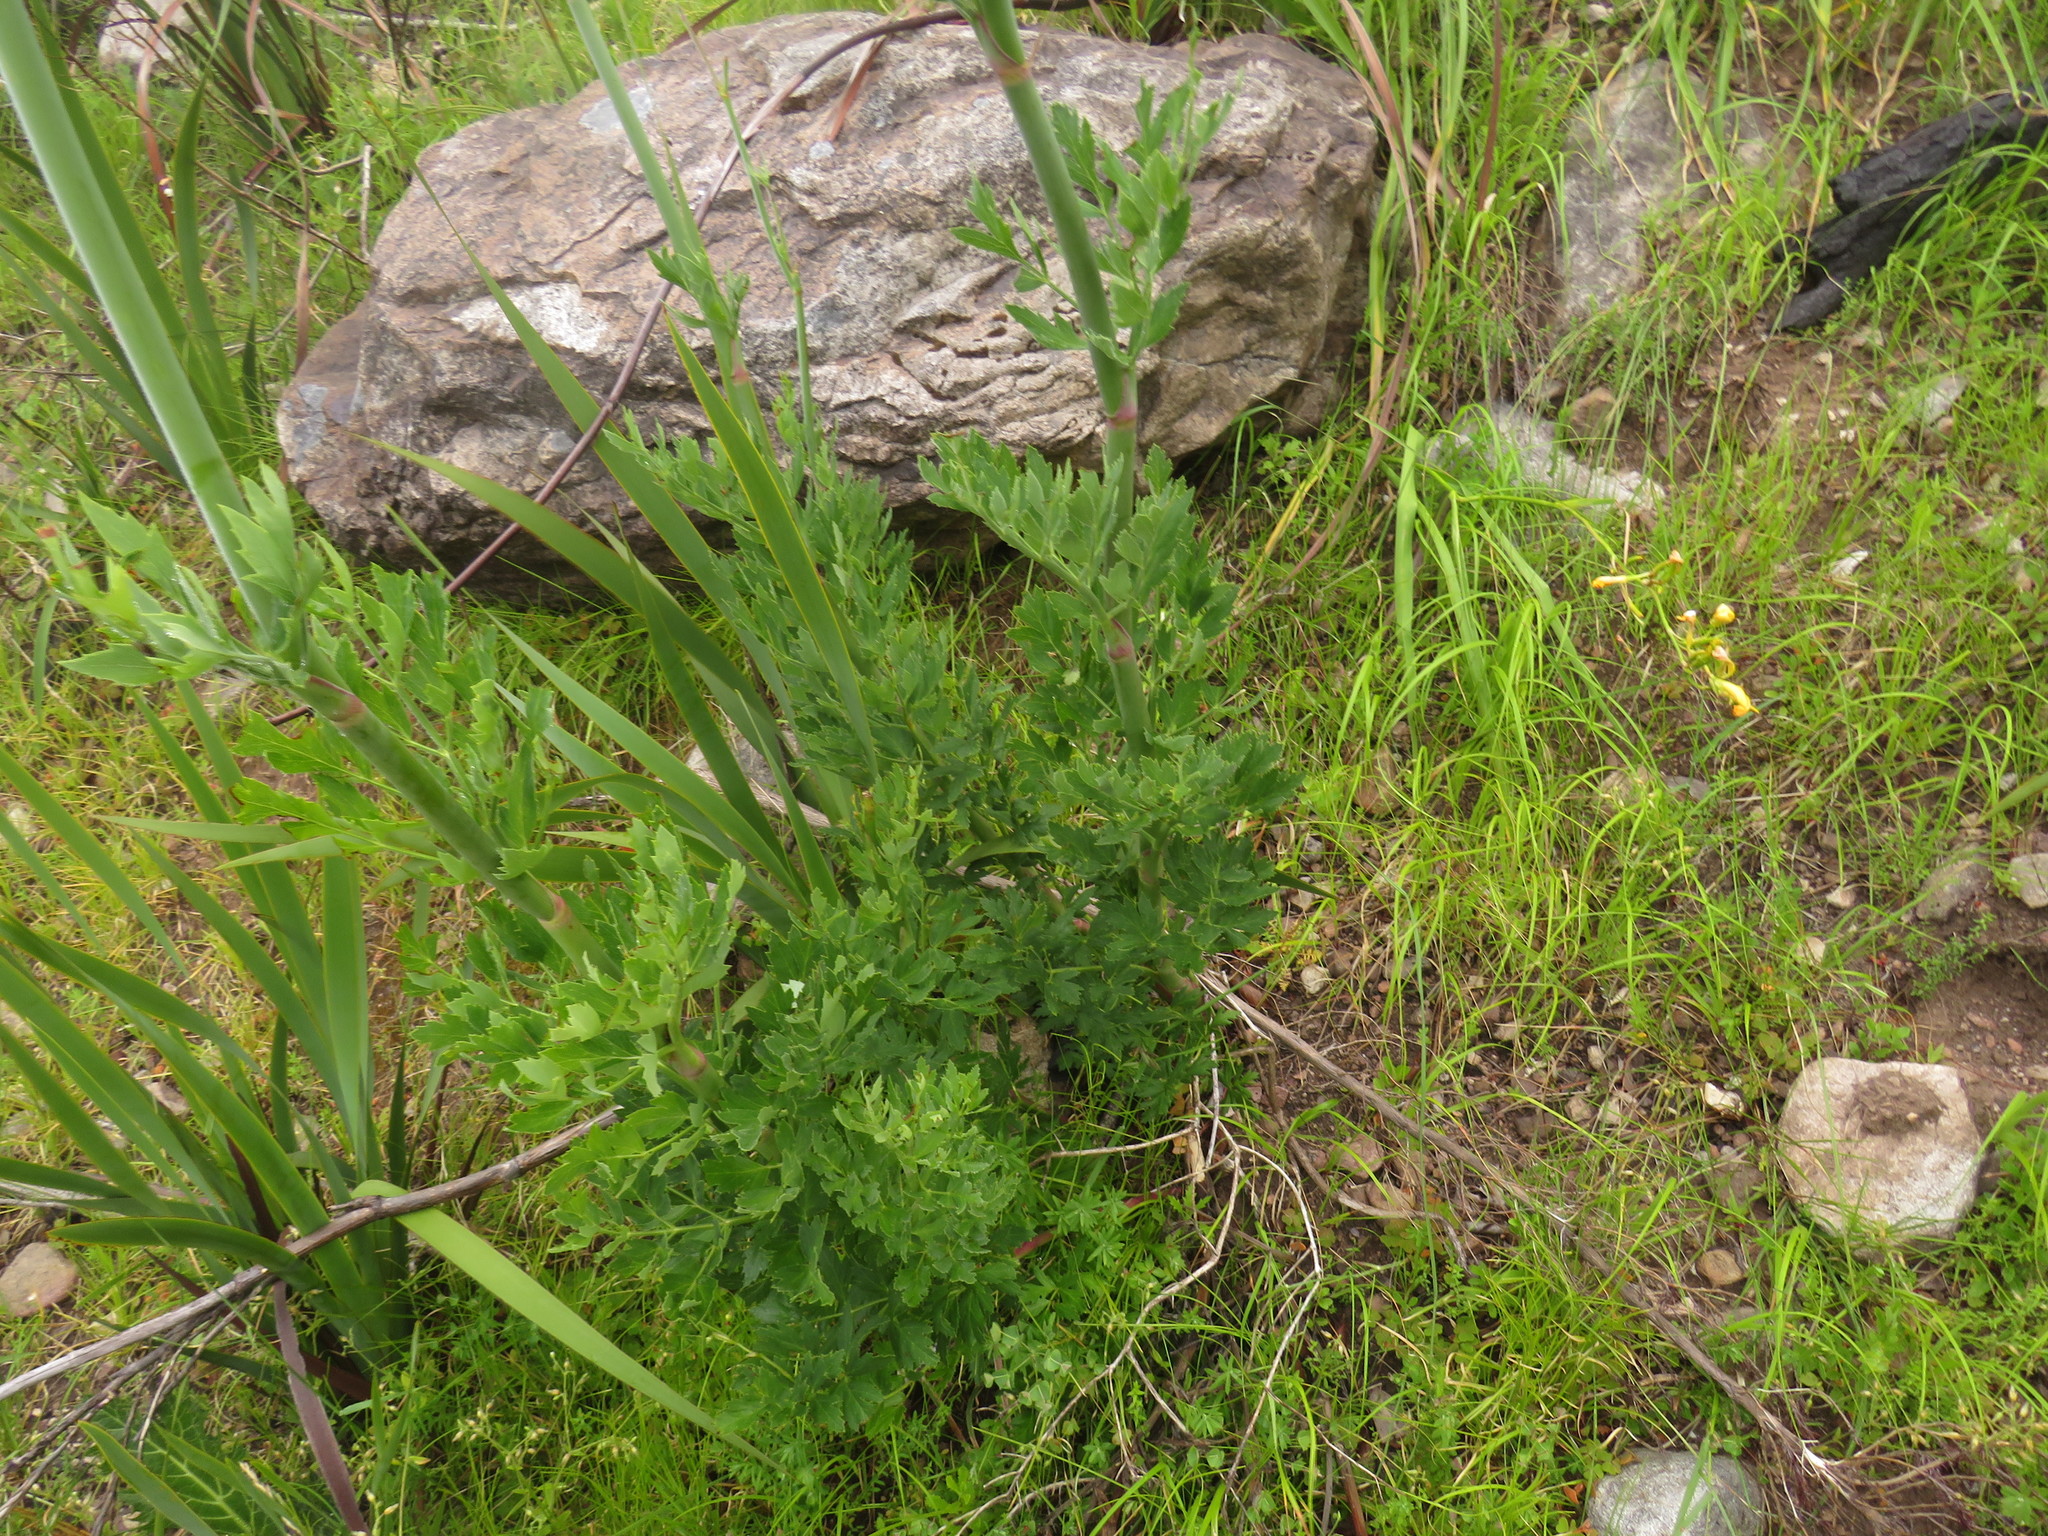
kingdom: Plantae
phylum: Tracheophyta
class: Magnoliopsida
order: Apiales
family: Apiaceae
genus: Notobubon
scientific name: Notobubon galbaniopse
